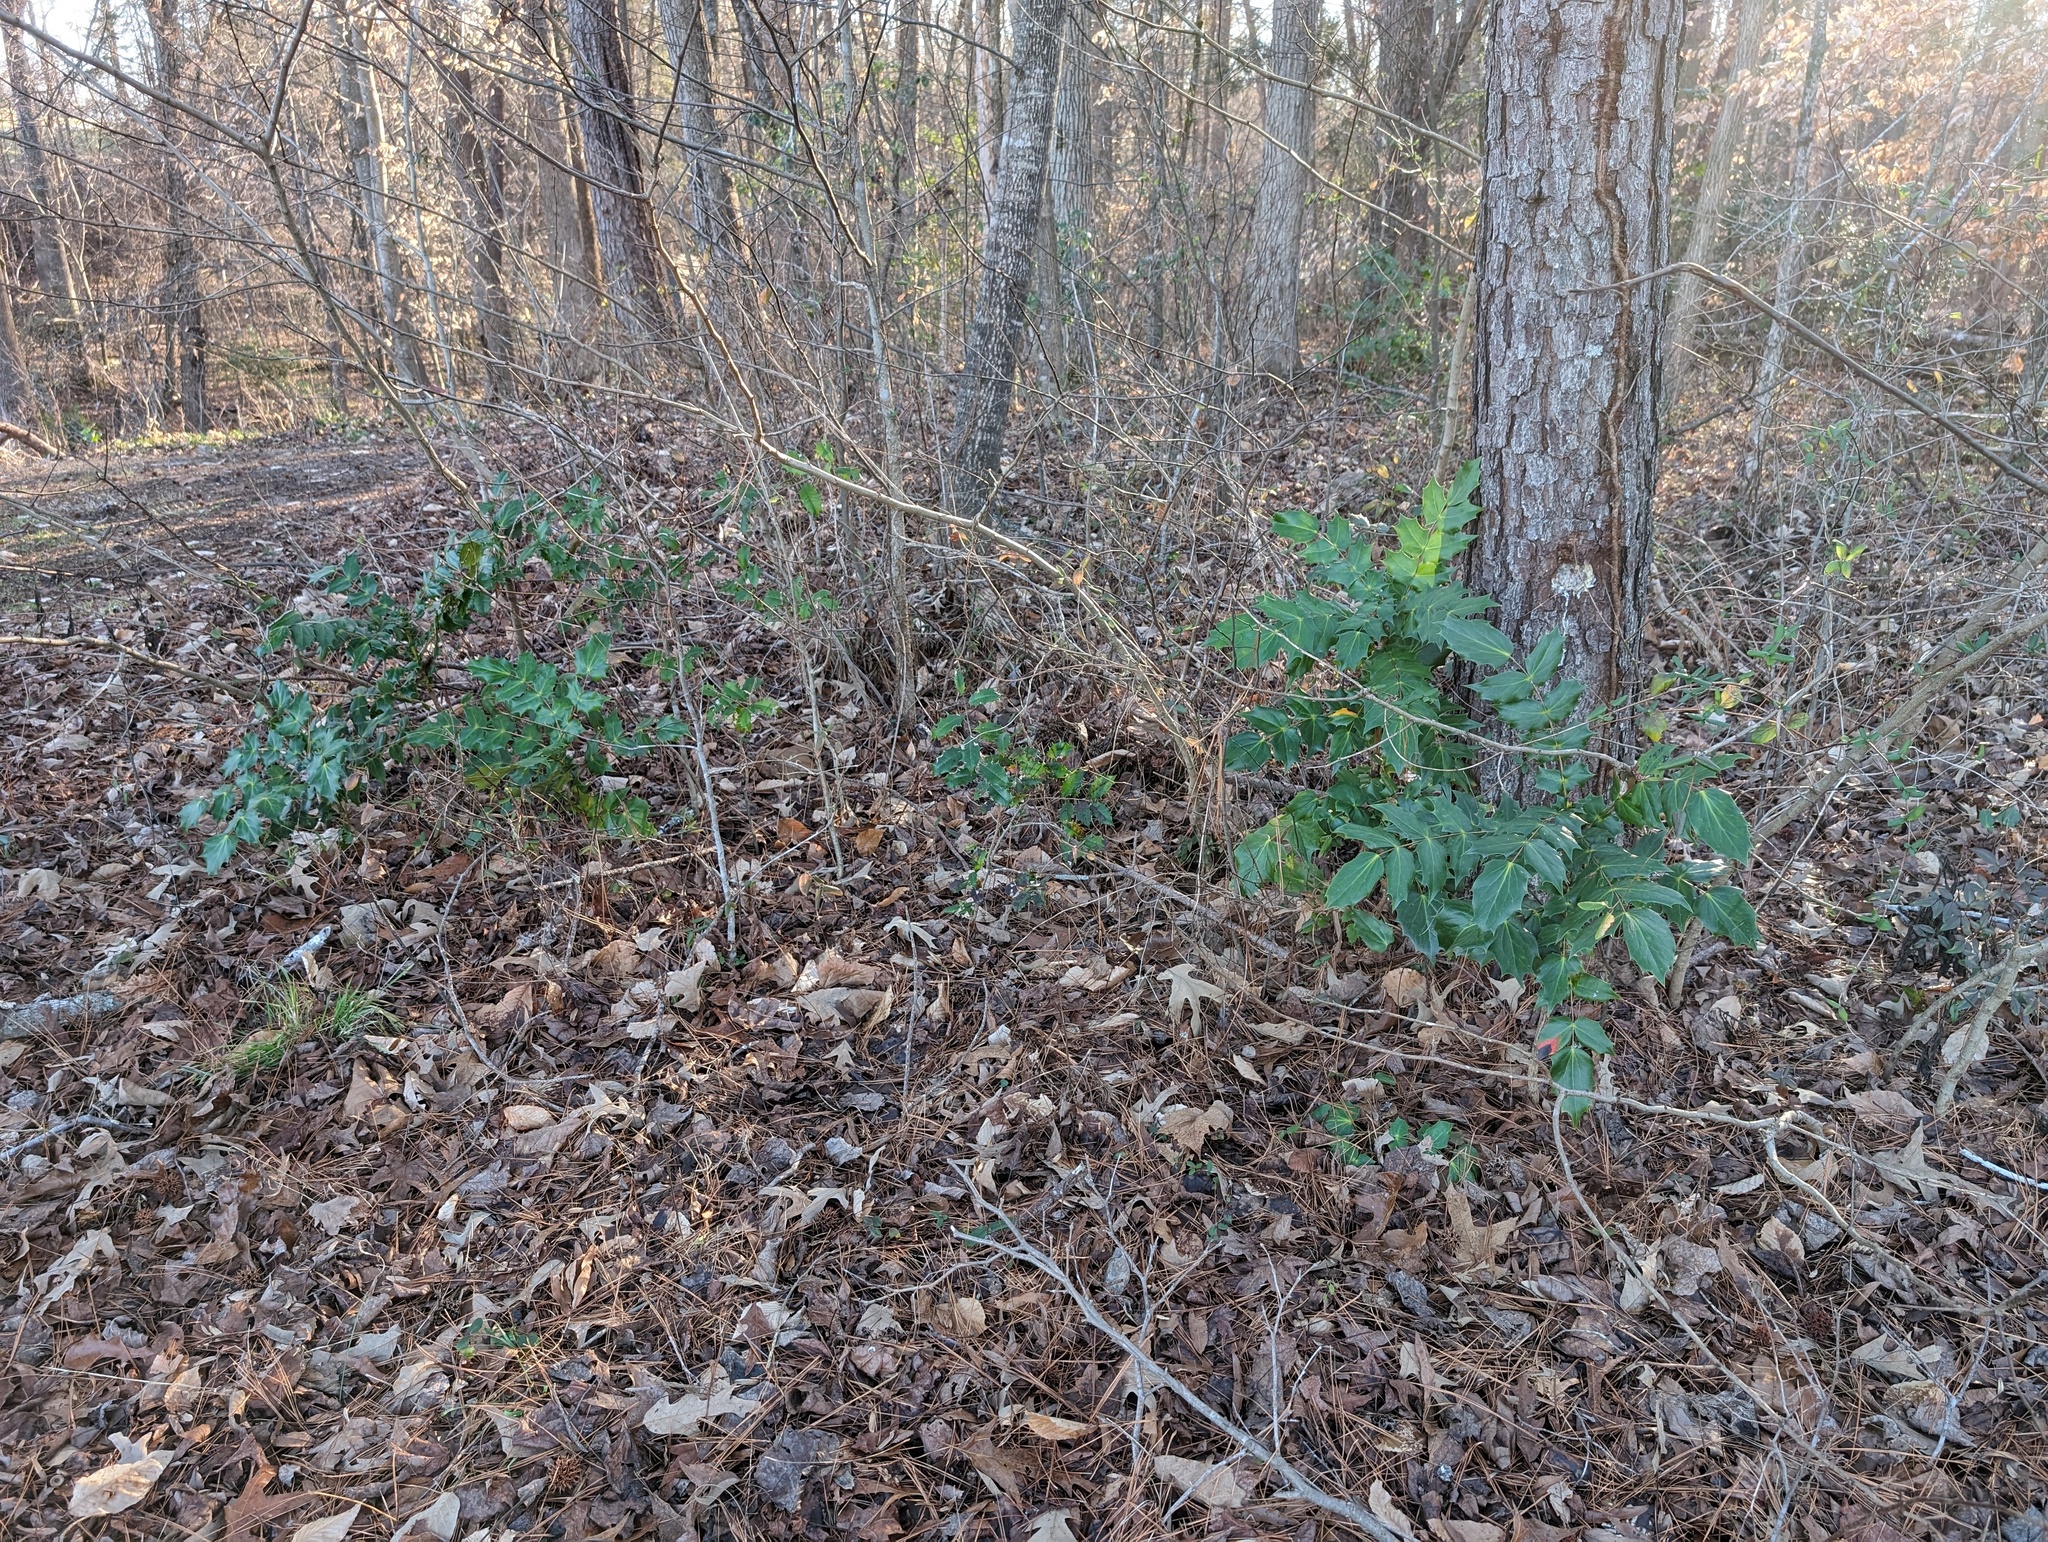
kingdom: Plantae
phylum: Tracheophyta
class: Magnoliopsida
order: Ranunculales
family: Berberidaceae
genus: Mahonia
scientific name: Mahonia bealei
